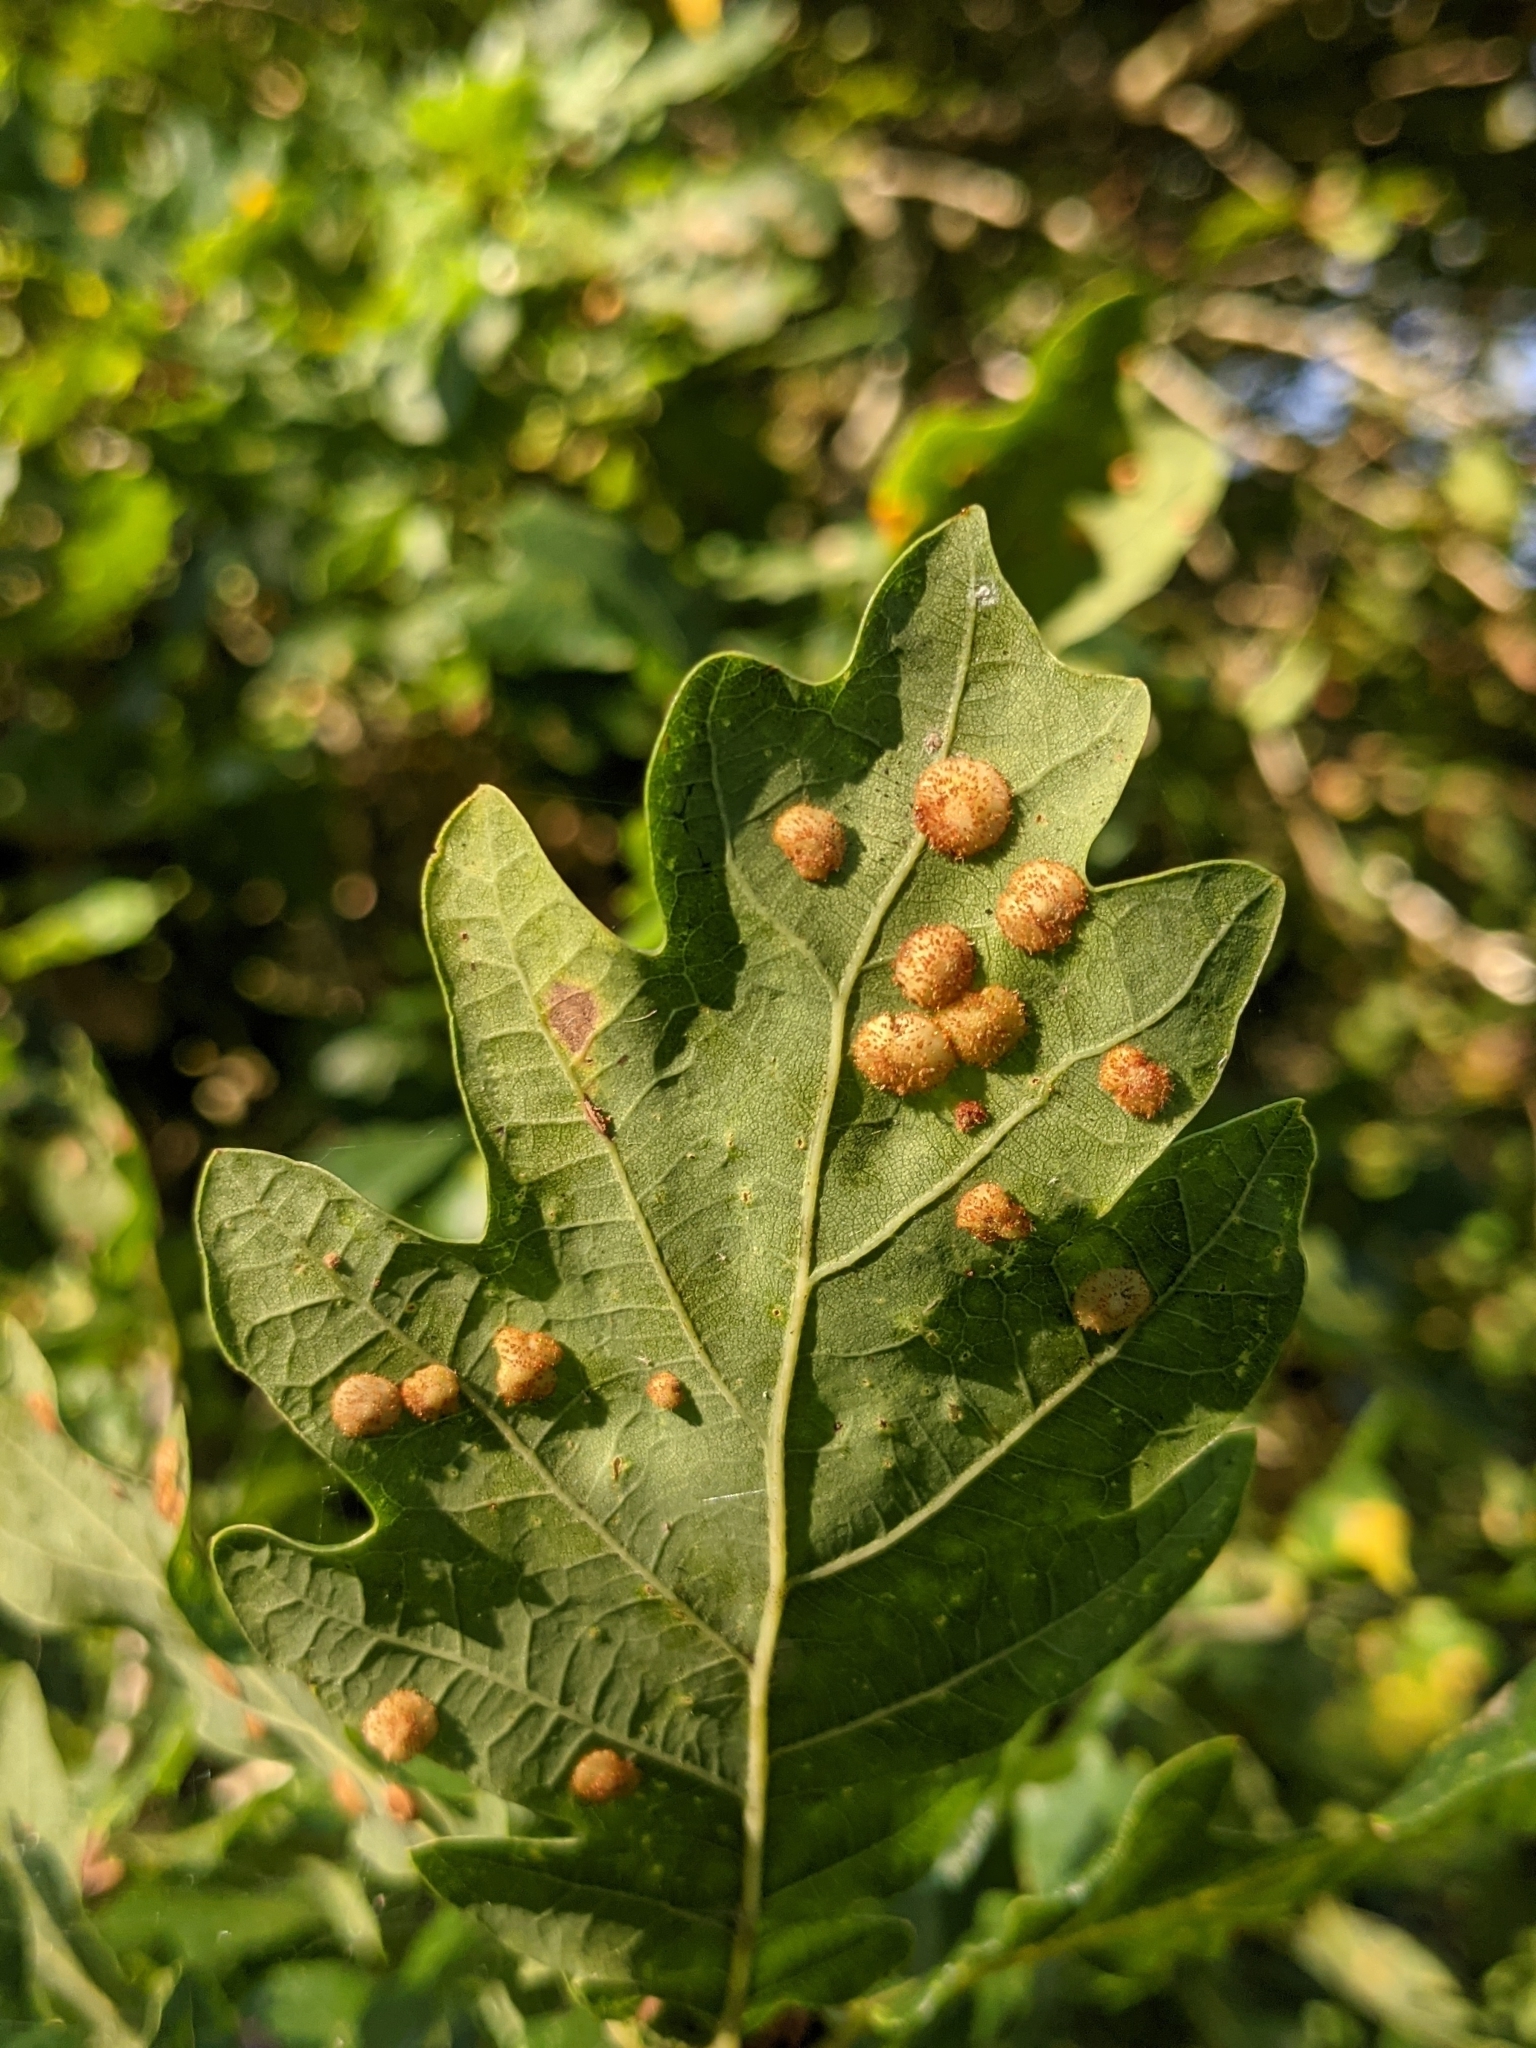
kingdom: Animalia
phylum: Arthropoda
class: Insecta
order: Hymenoptera
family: Cynipidae
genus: Neuroterus
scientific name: Neuroterus quercusbaccarum
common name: Common spangle gall
